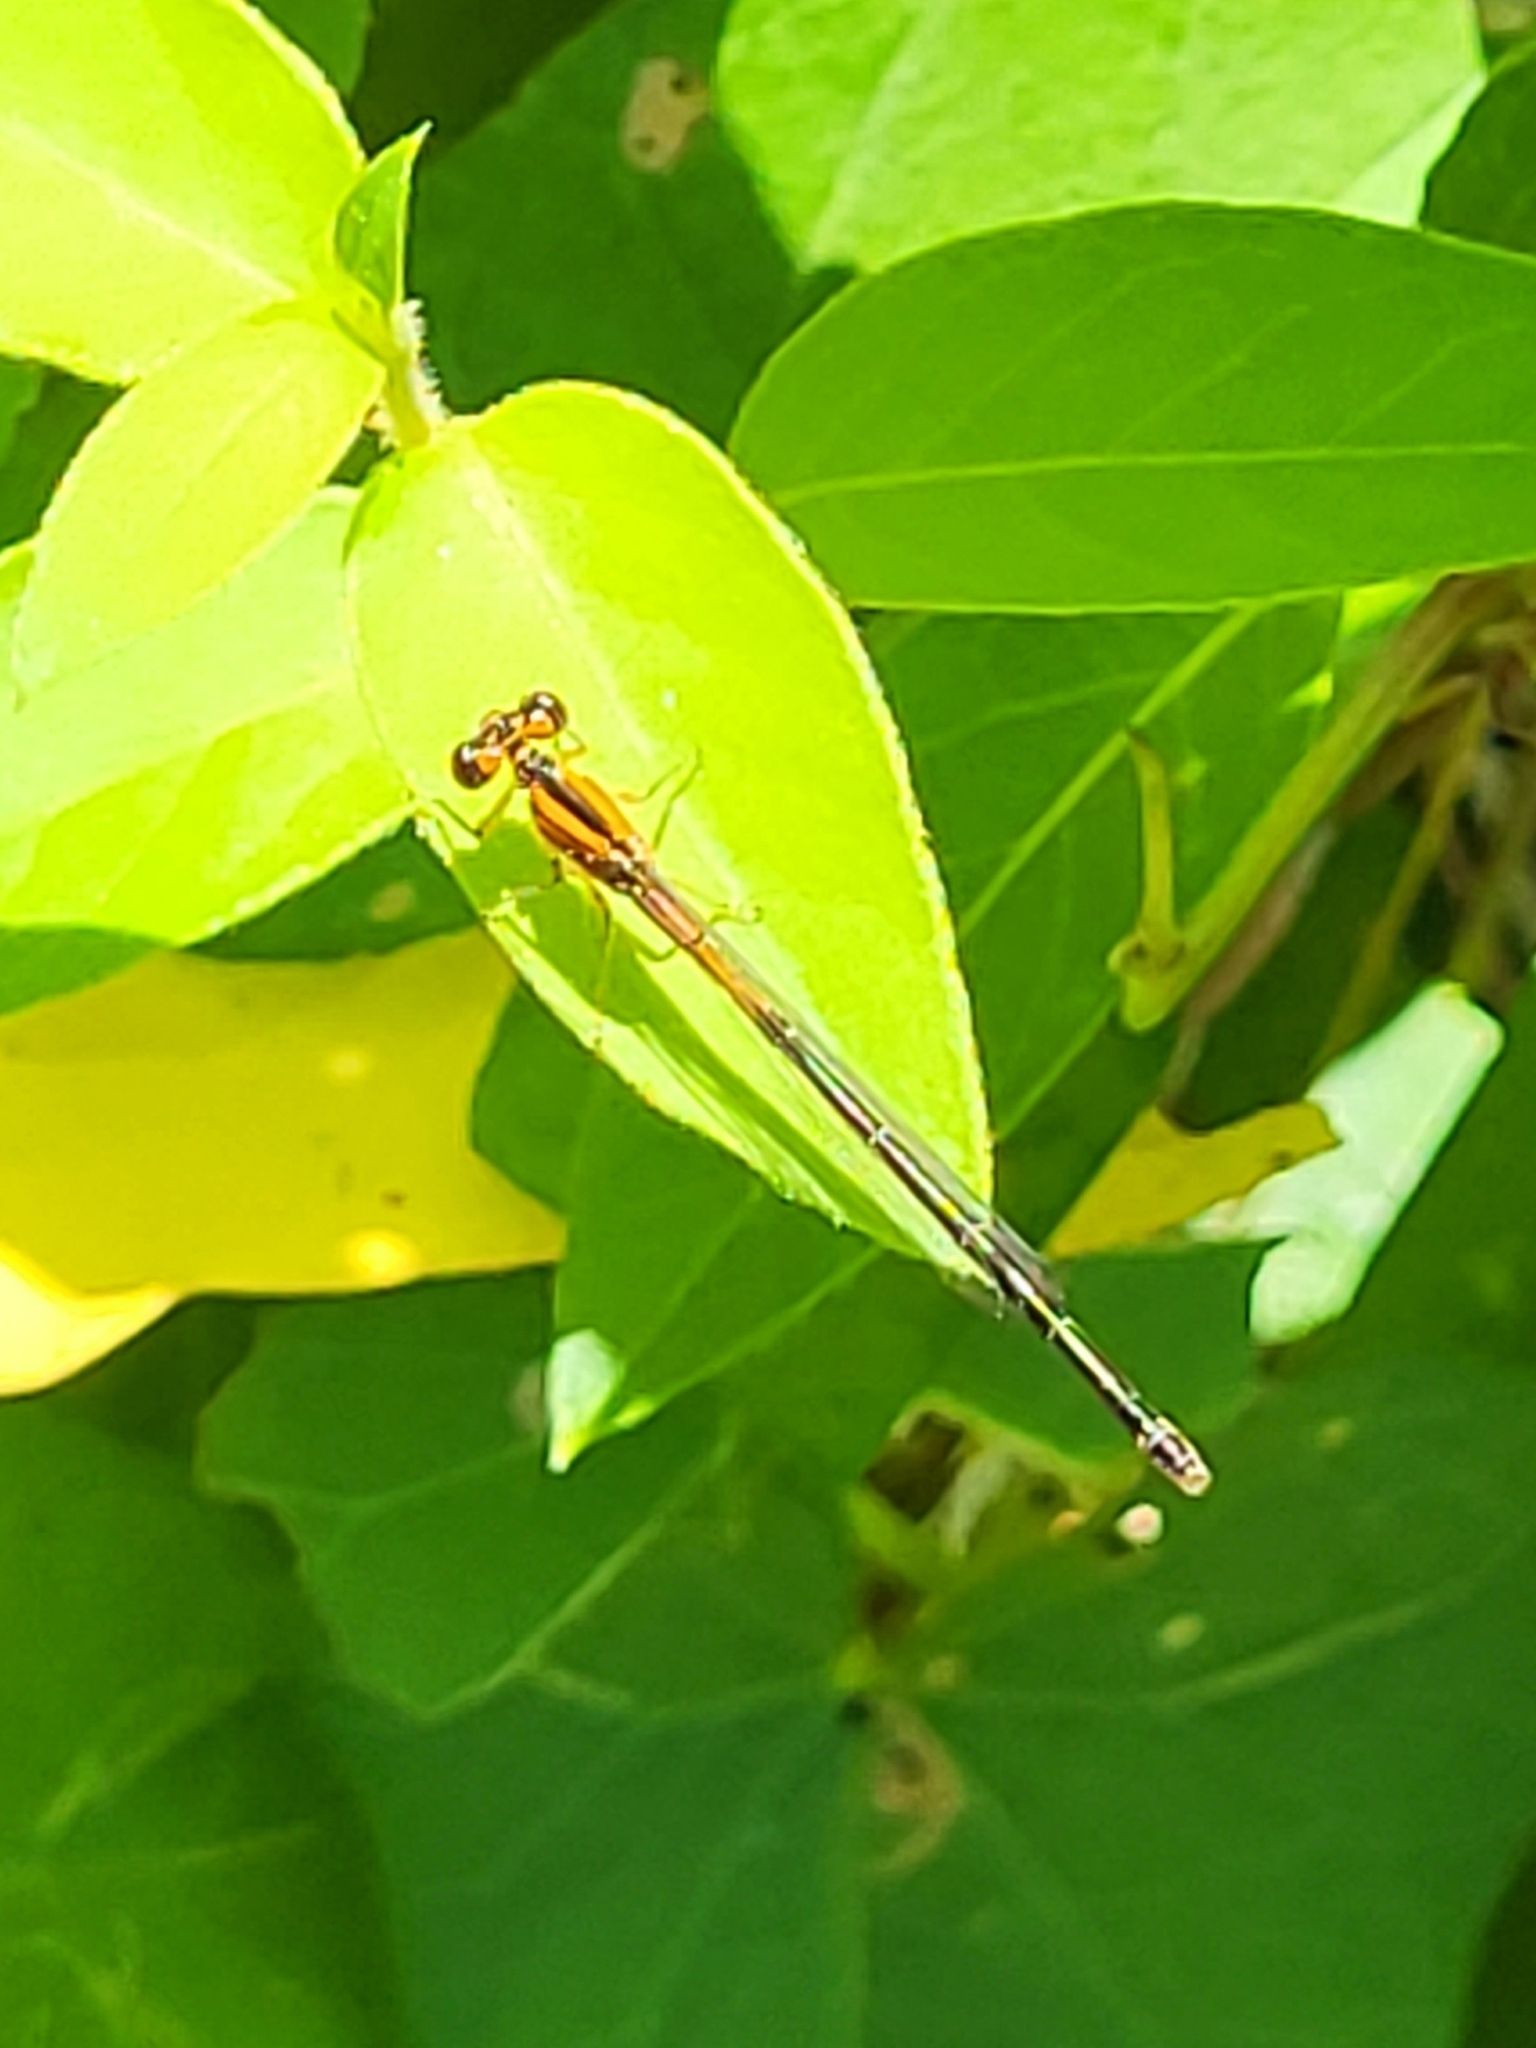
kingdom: Animalia
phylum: Arthropoda
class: Insecta
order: Odonata
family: Coenagrionidae
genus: Ischnura
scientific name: Ischnura verticalis
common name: Eastern forktail
